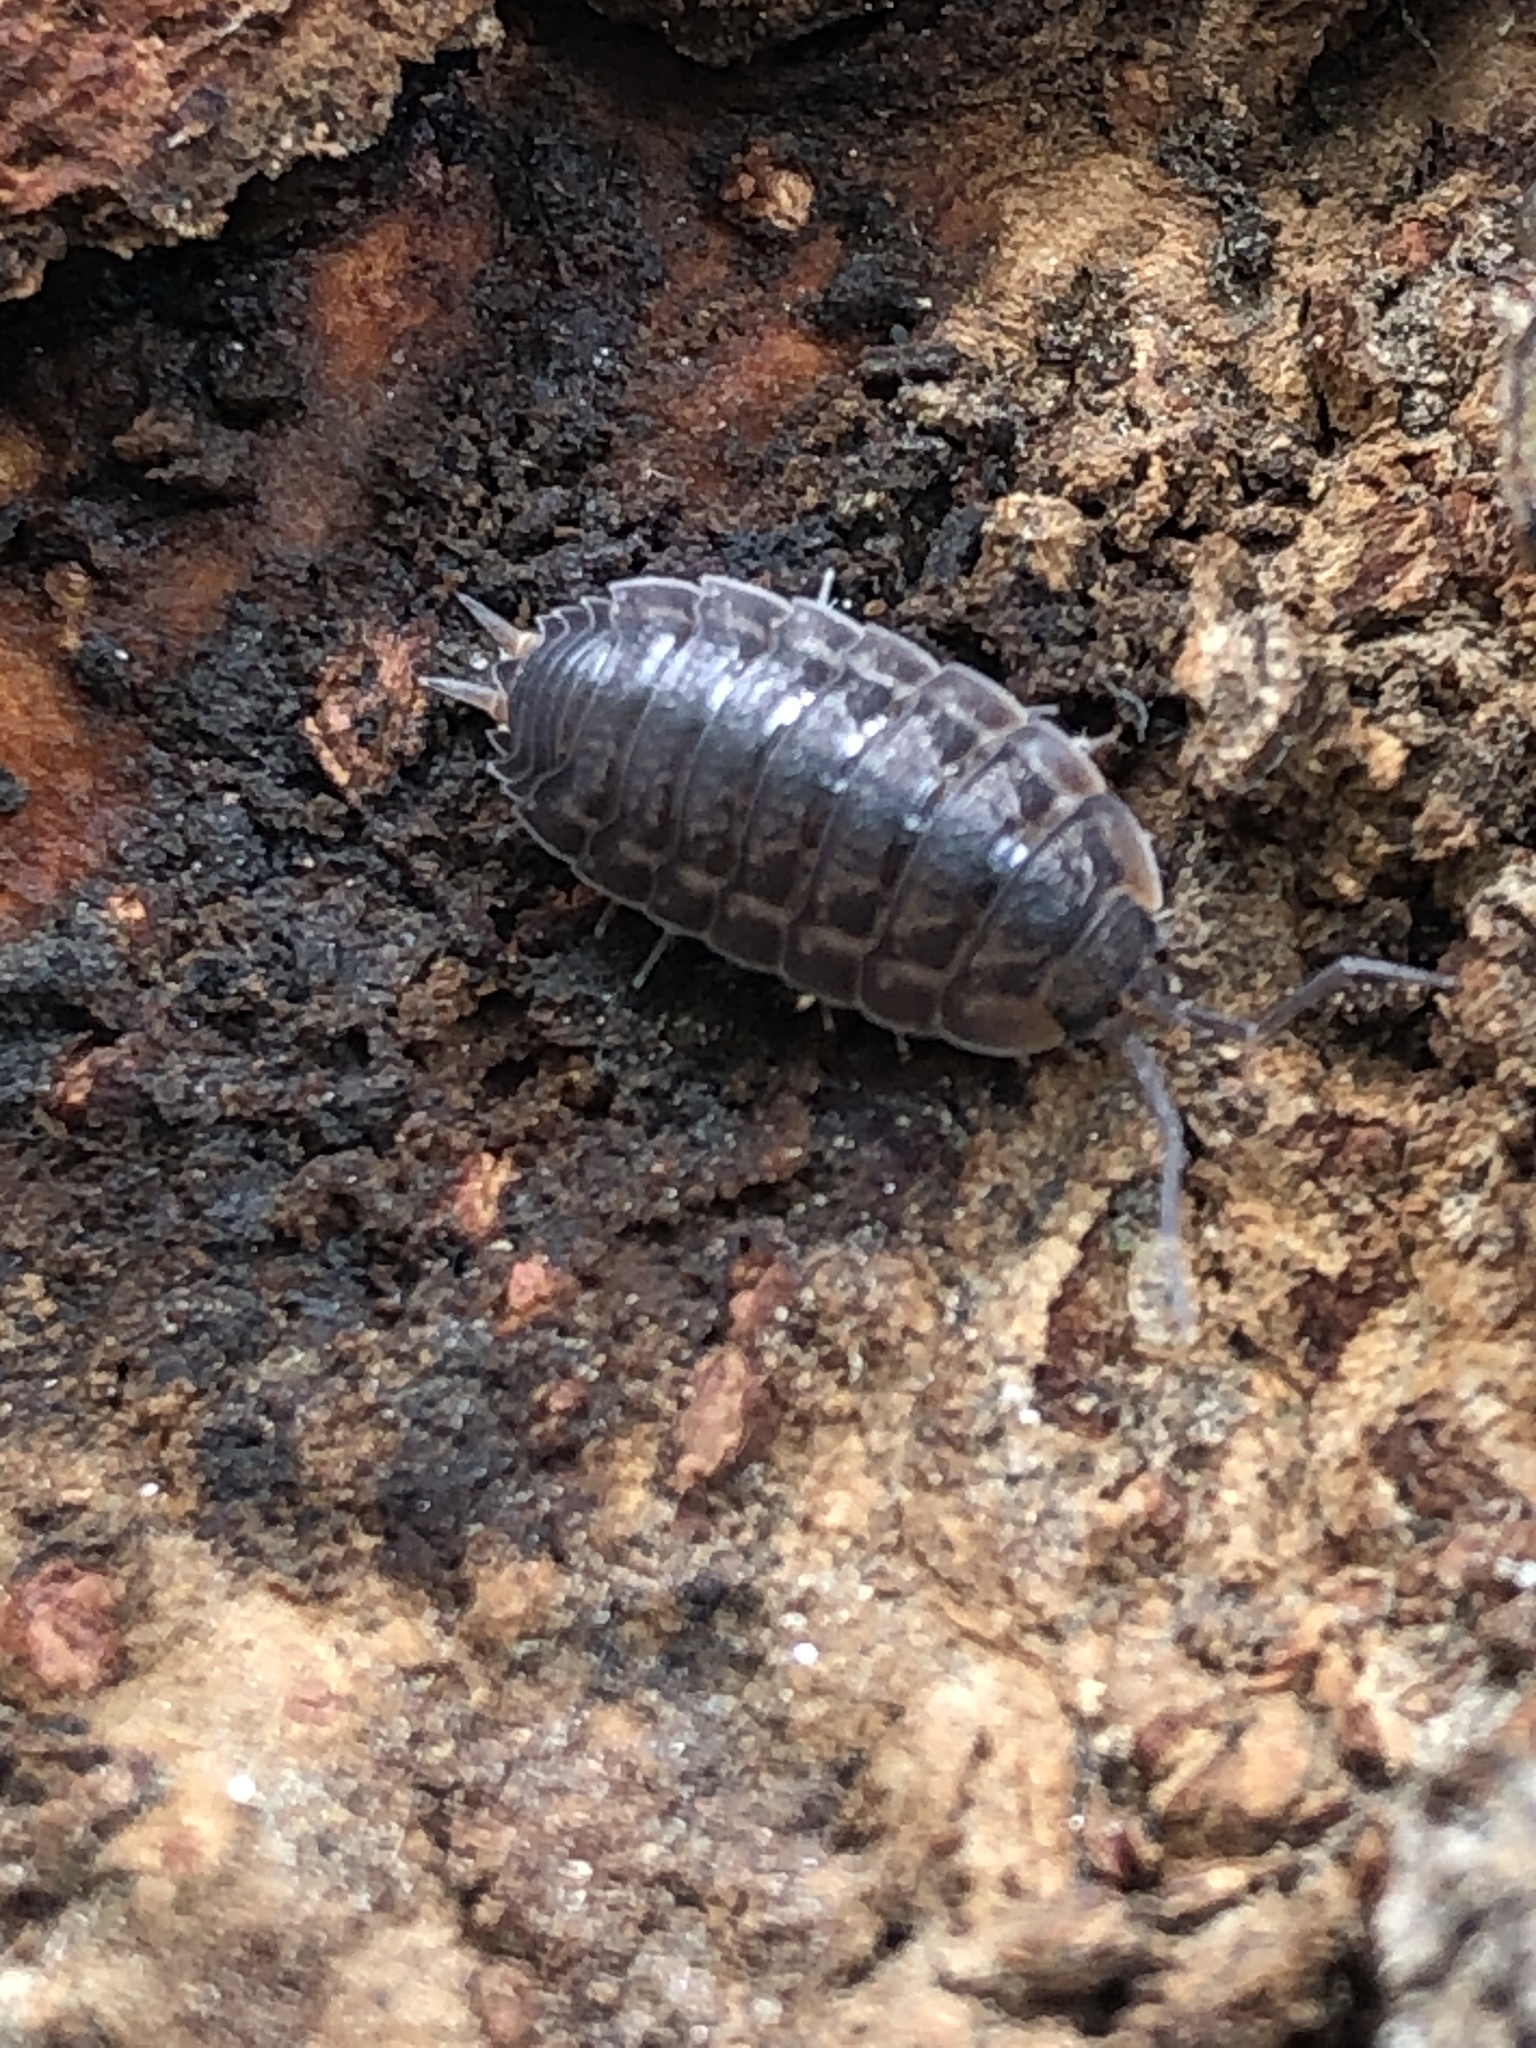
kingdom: Animalia
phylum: Arthropoda
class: Malacostraca
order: Isopoda
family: Agnaridae
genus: Koreoniscus
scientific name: Koreoniscus racovitzai
